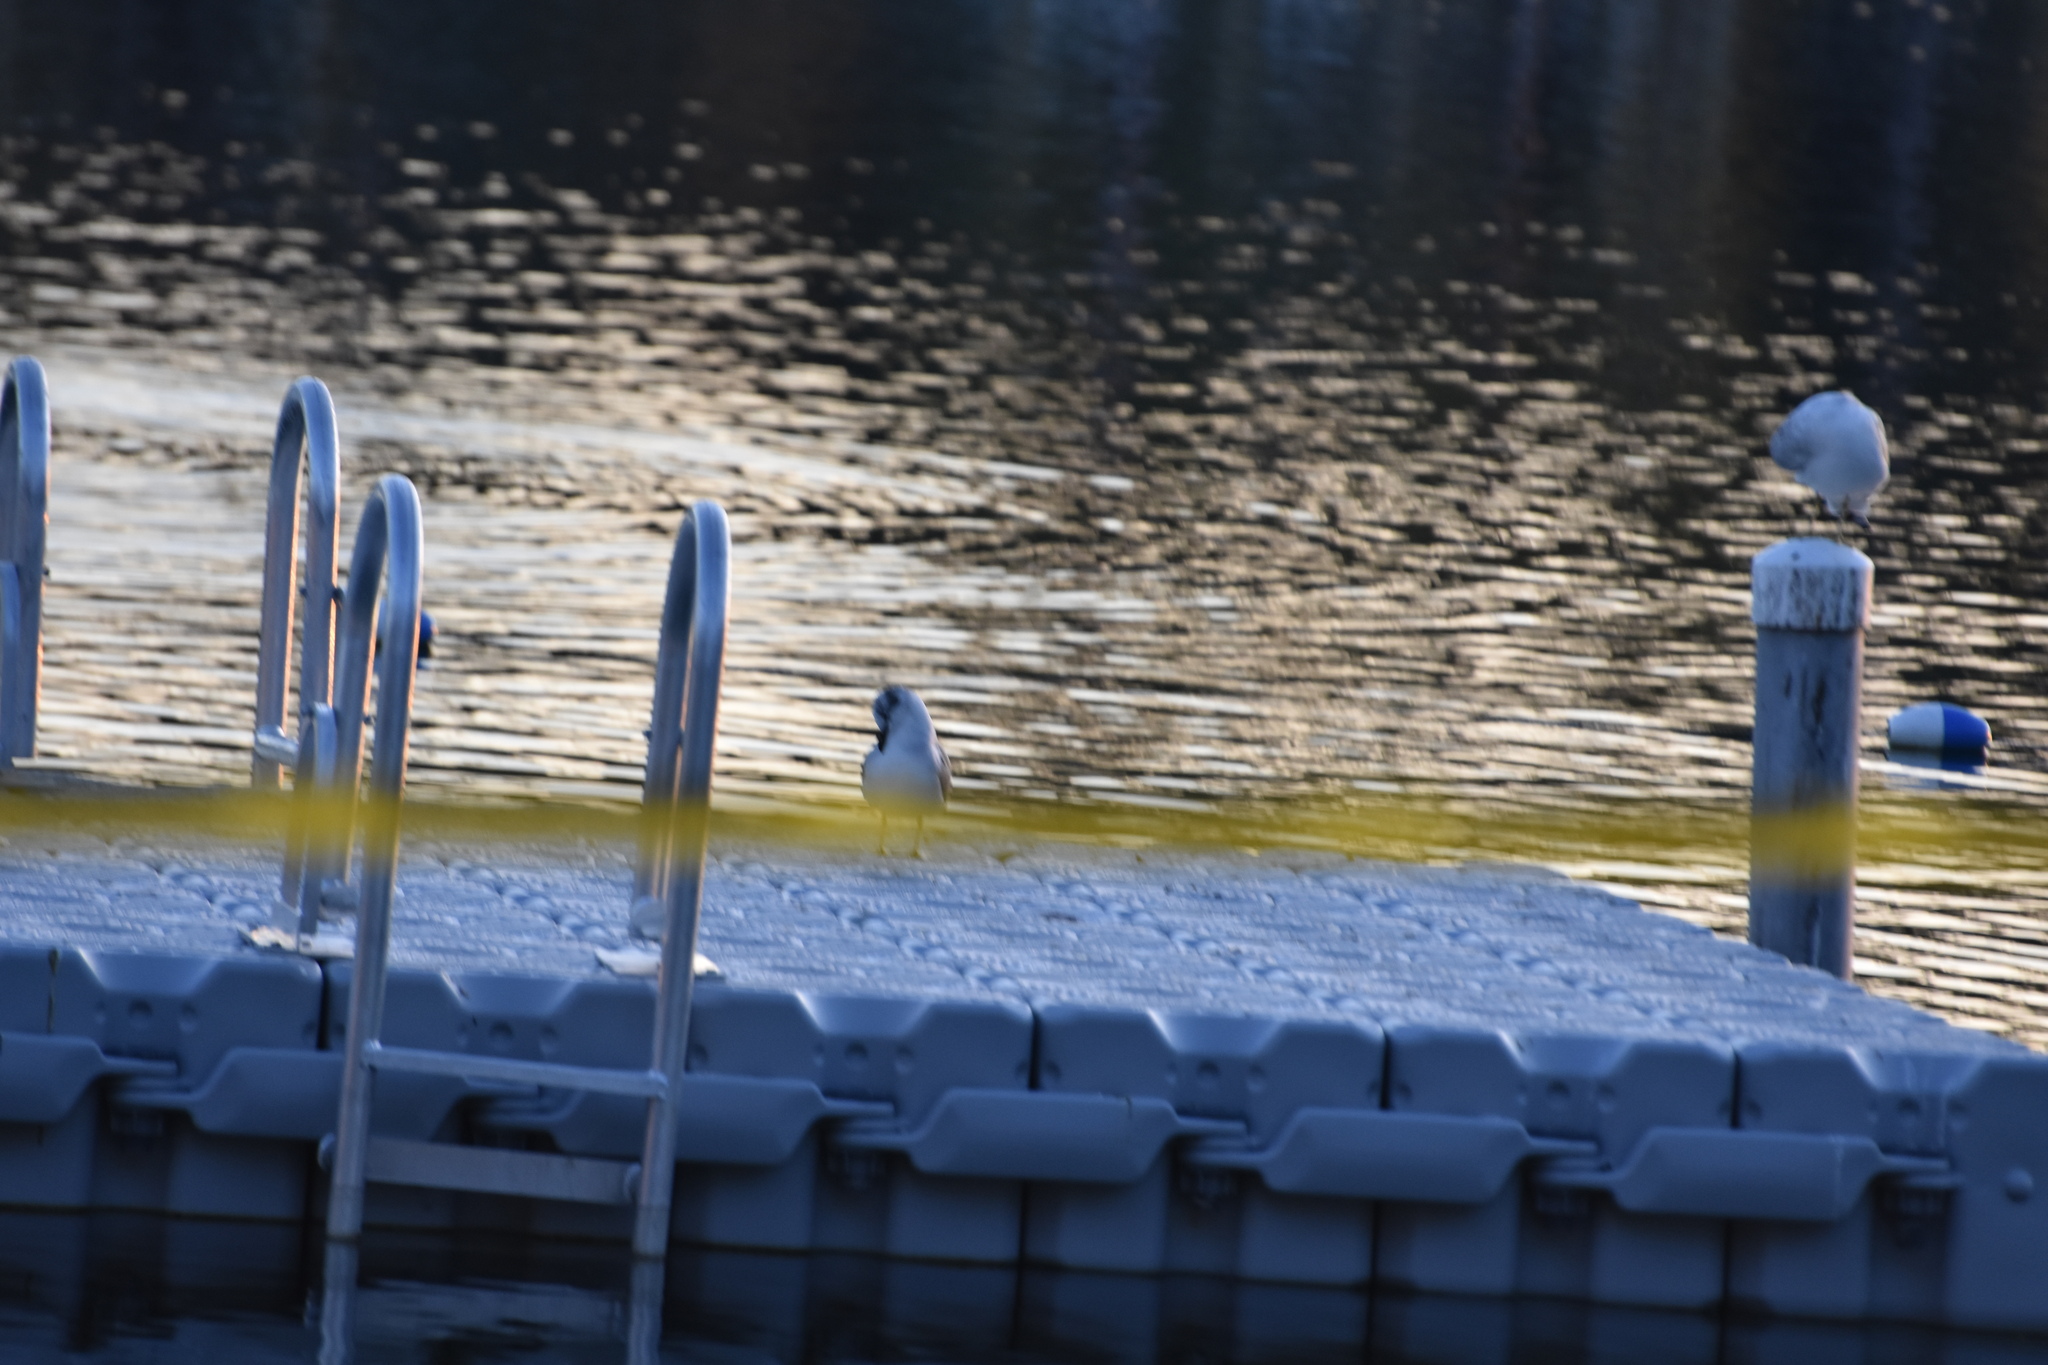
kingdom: Animalia
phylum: Chordata
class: Aves
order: Charadriiformes
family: Laridae
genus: Leucophaeus
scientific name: Leucophaeus atricilla
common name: Laughing gull
